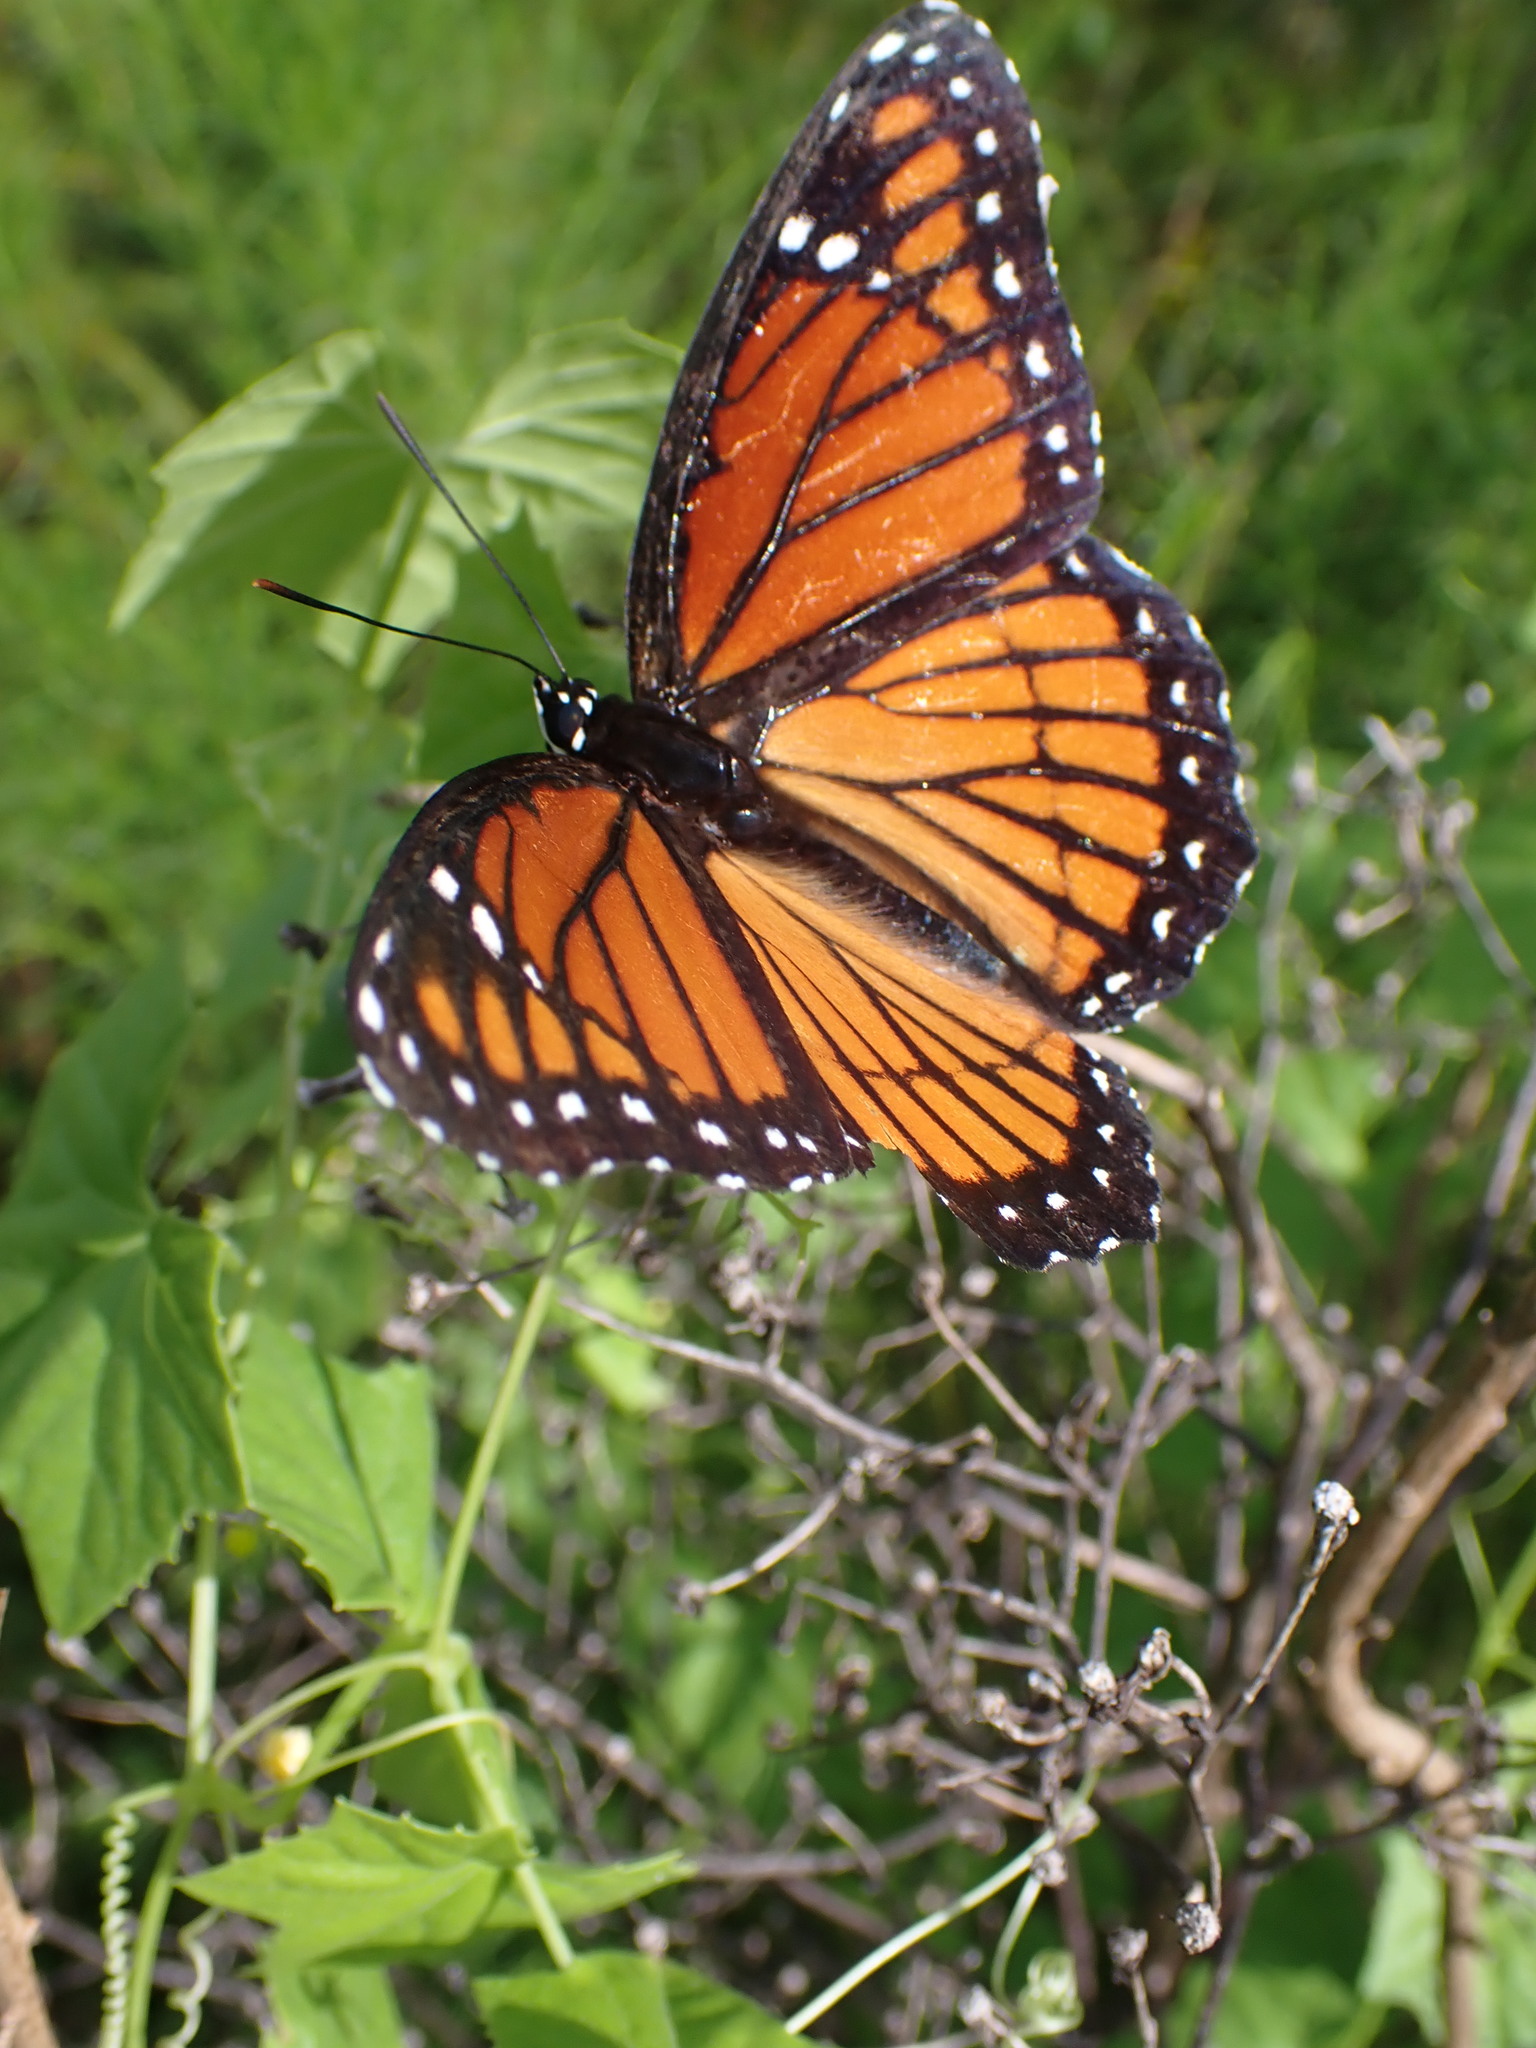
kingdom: Animalia
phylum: Arthropoda
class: Insecta
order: Lepidoptera
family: Nymphalidae
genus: Limenitis
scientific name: Limenitis archippus
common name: Viceroy
